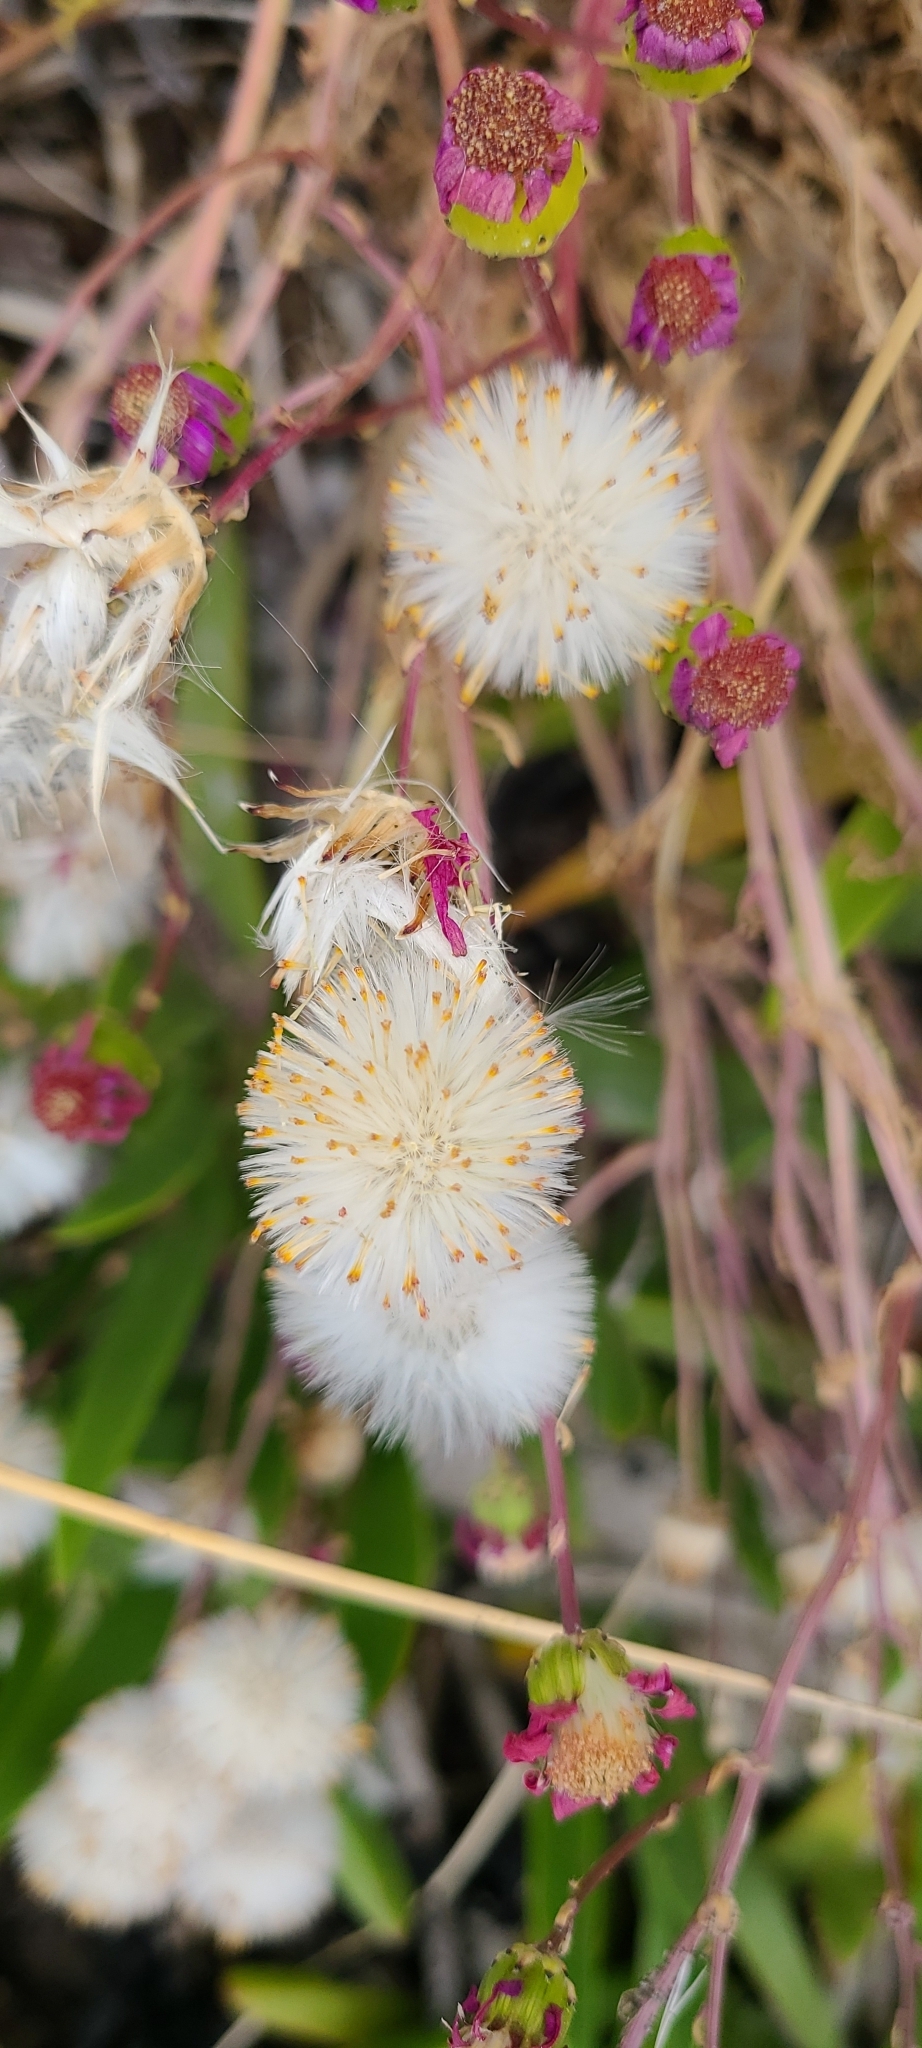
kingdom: Plantae
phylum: Tracheophyta
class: Magnoliopsida
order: Asterales
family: Asteraceae
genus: Senecio
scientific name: Senecio elegans
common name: Purple groundsel
